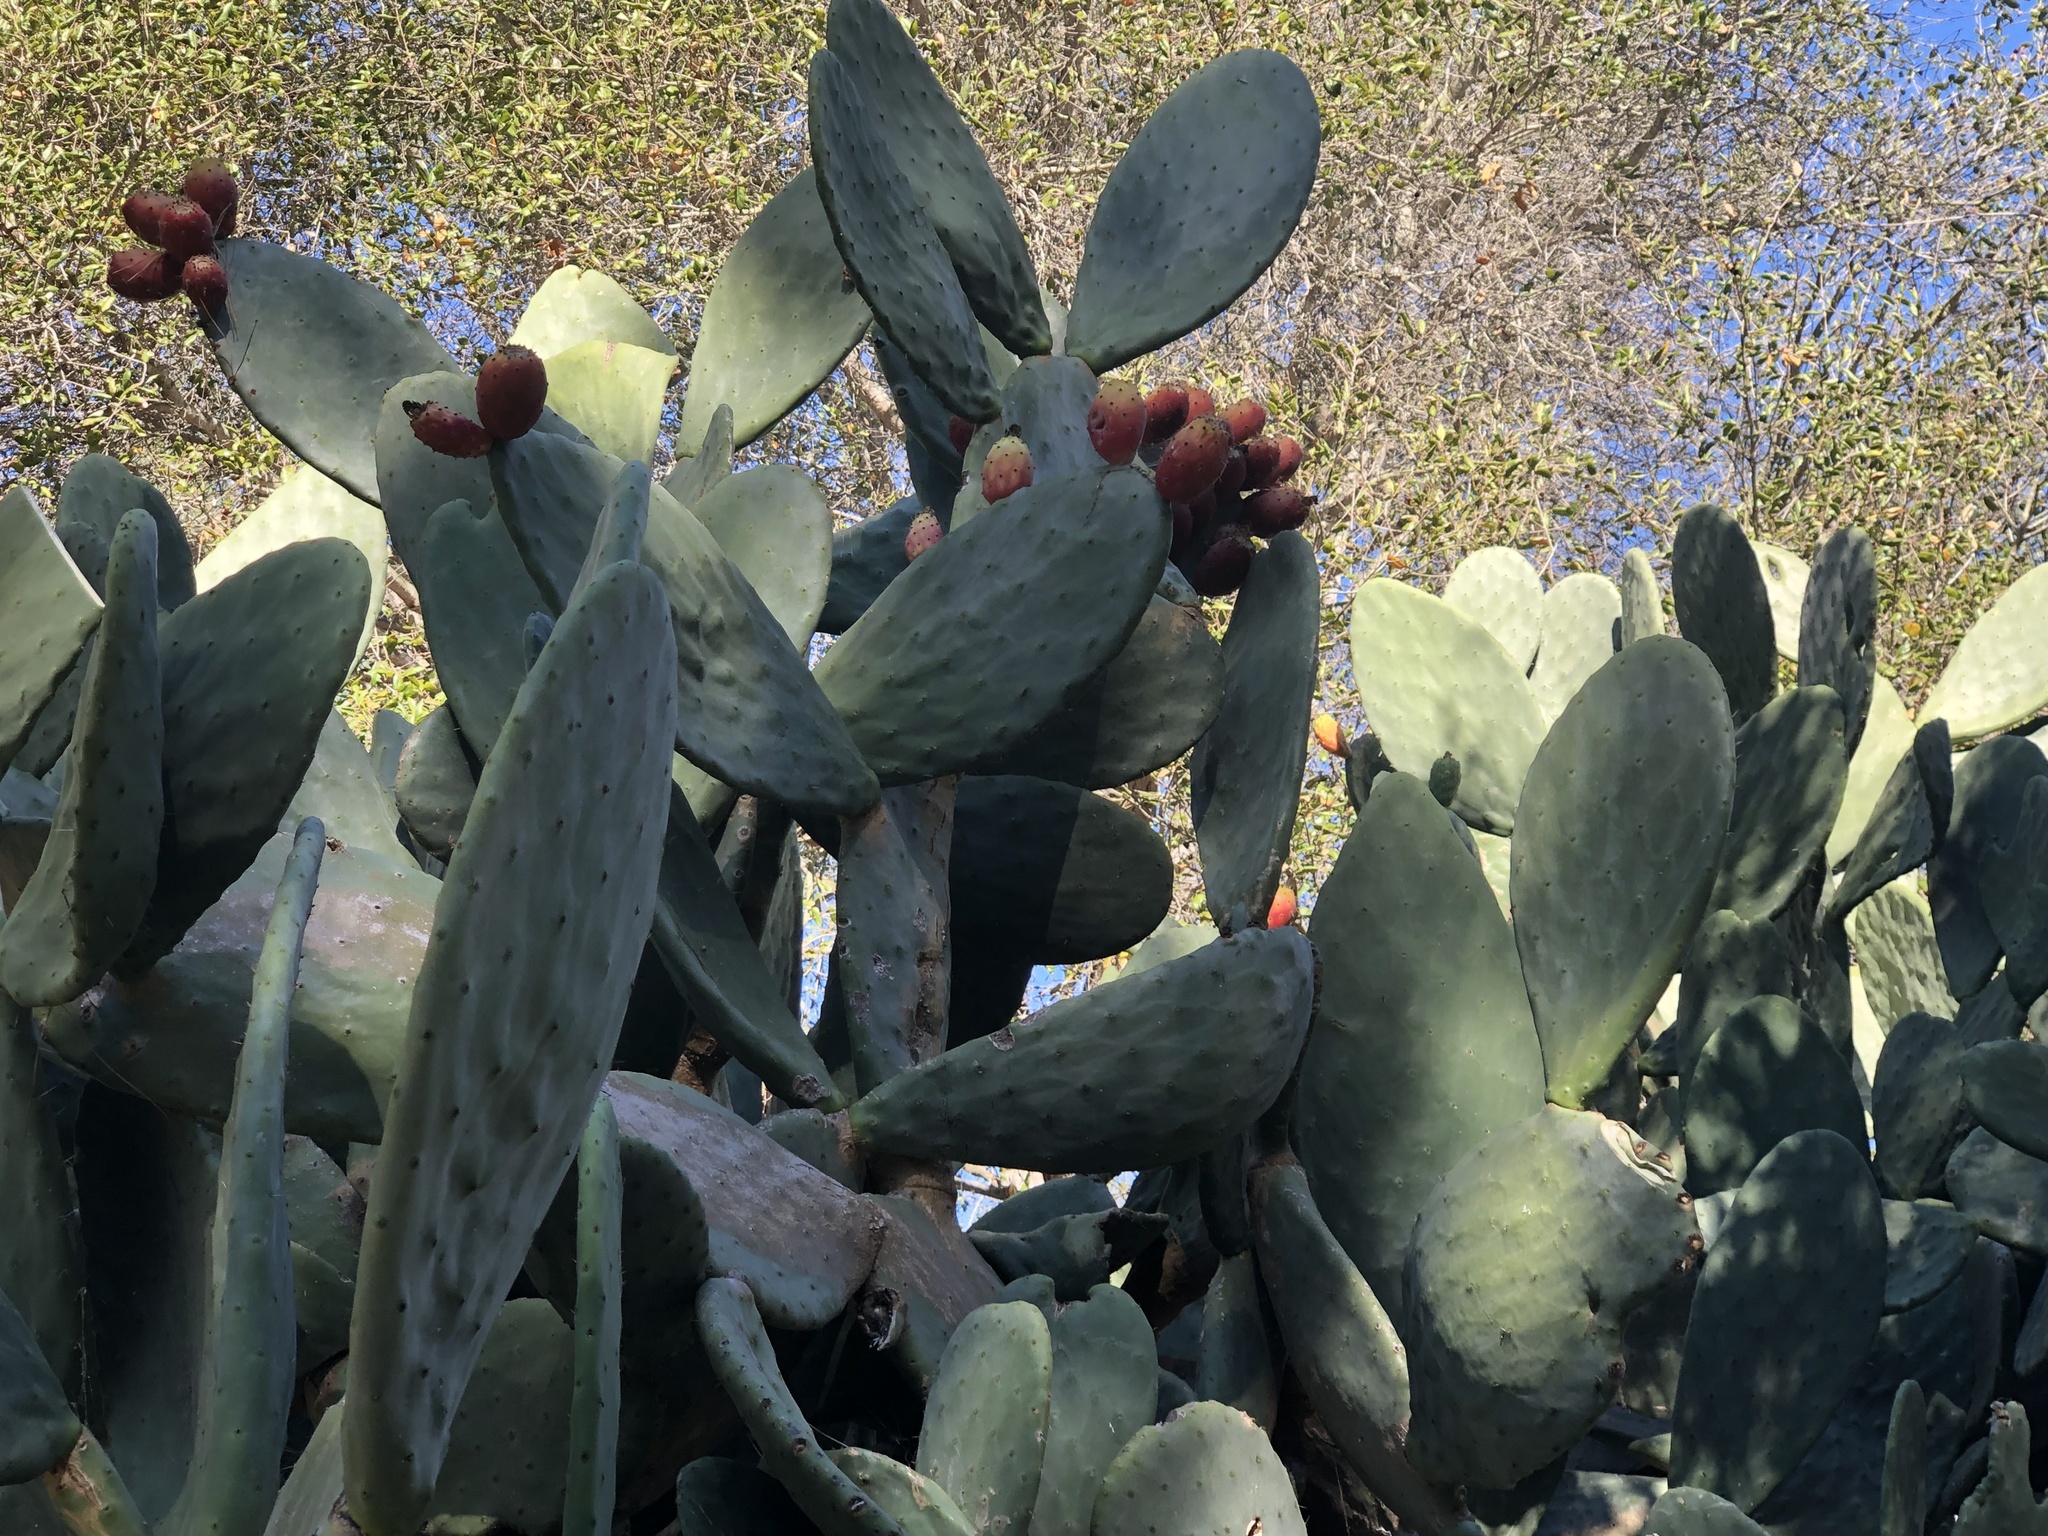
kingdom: Plantae
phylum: Tracheophyta
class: Magnoliopsida
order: Caryophyllales
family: Cactaceae
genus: Opuntia
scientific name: Opuntia ficus-indica
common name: Barbary fig
